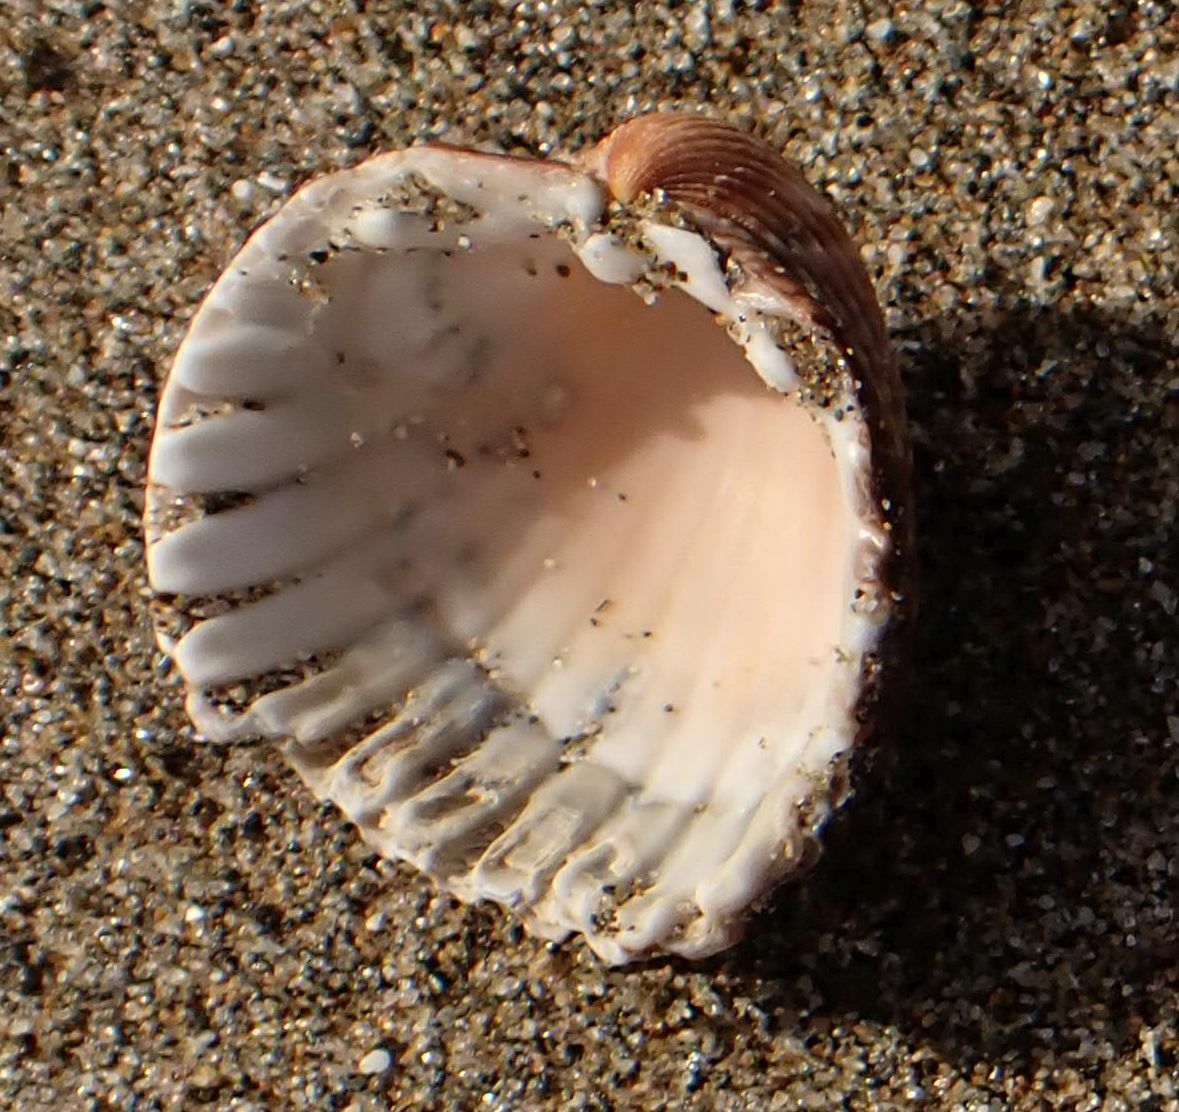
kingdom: Animalia
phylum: Mollusca
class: Bivalvia
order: Cardiida
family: Cardiidae
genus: Acanthocardia
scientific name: Acanthocardia tuberculata
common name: Rough cockle
